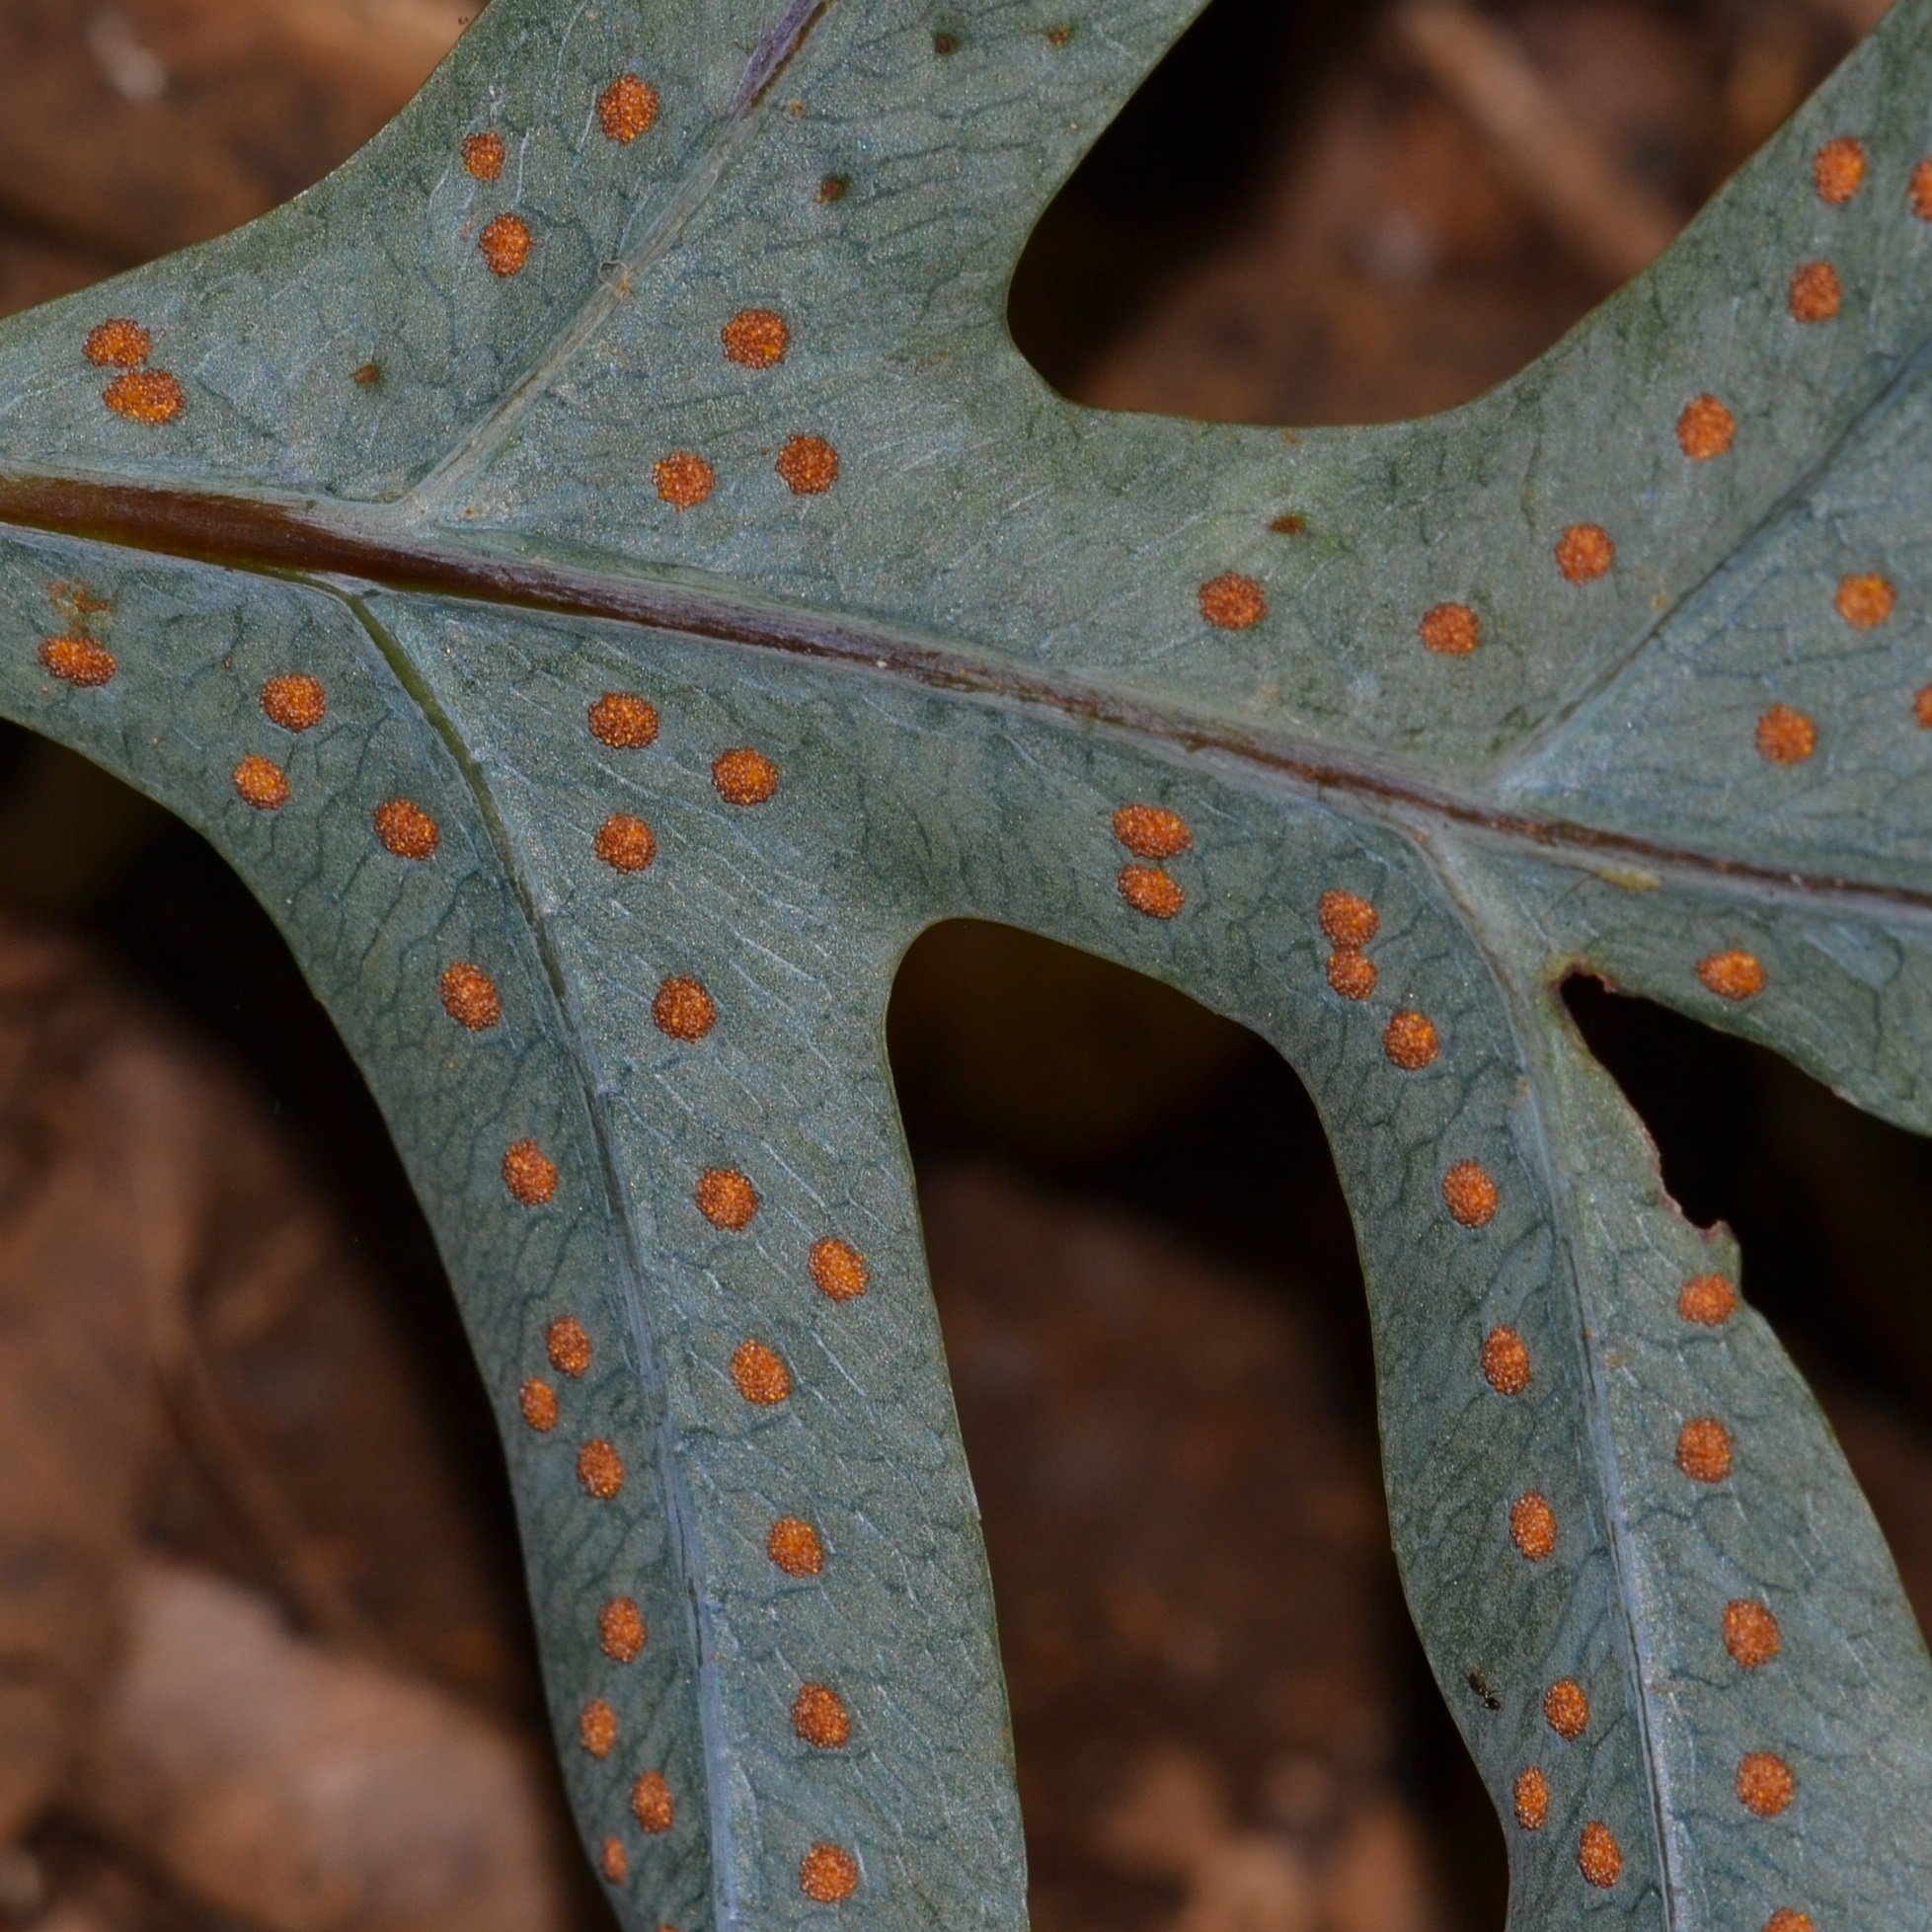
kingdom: Plantae
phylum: Tracheophyta
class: Polypodiopsida
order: Polypodiales
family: Polypodiaceae
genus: Phlebodium
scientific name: Phlebodium aureum
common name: Gold-foot fern
